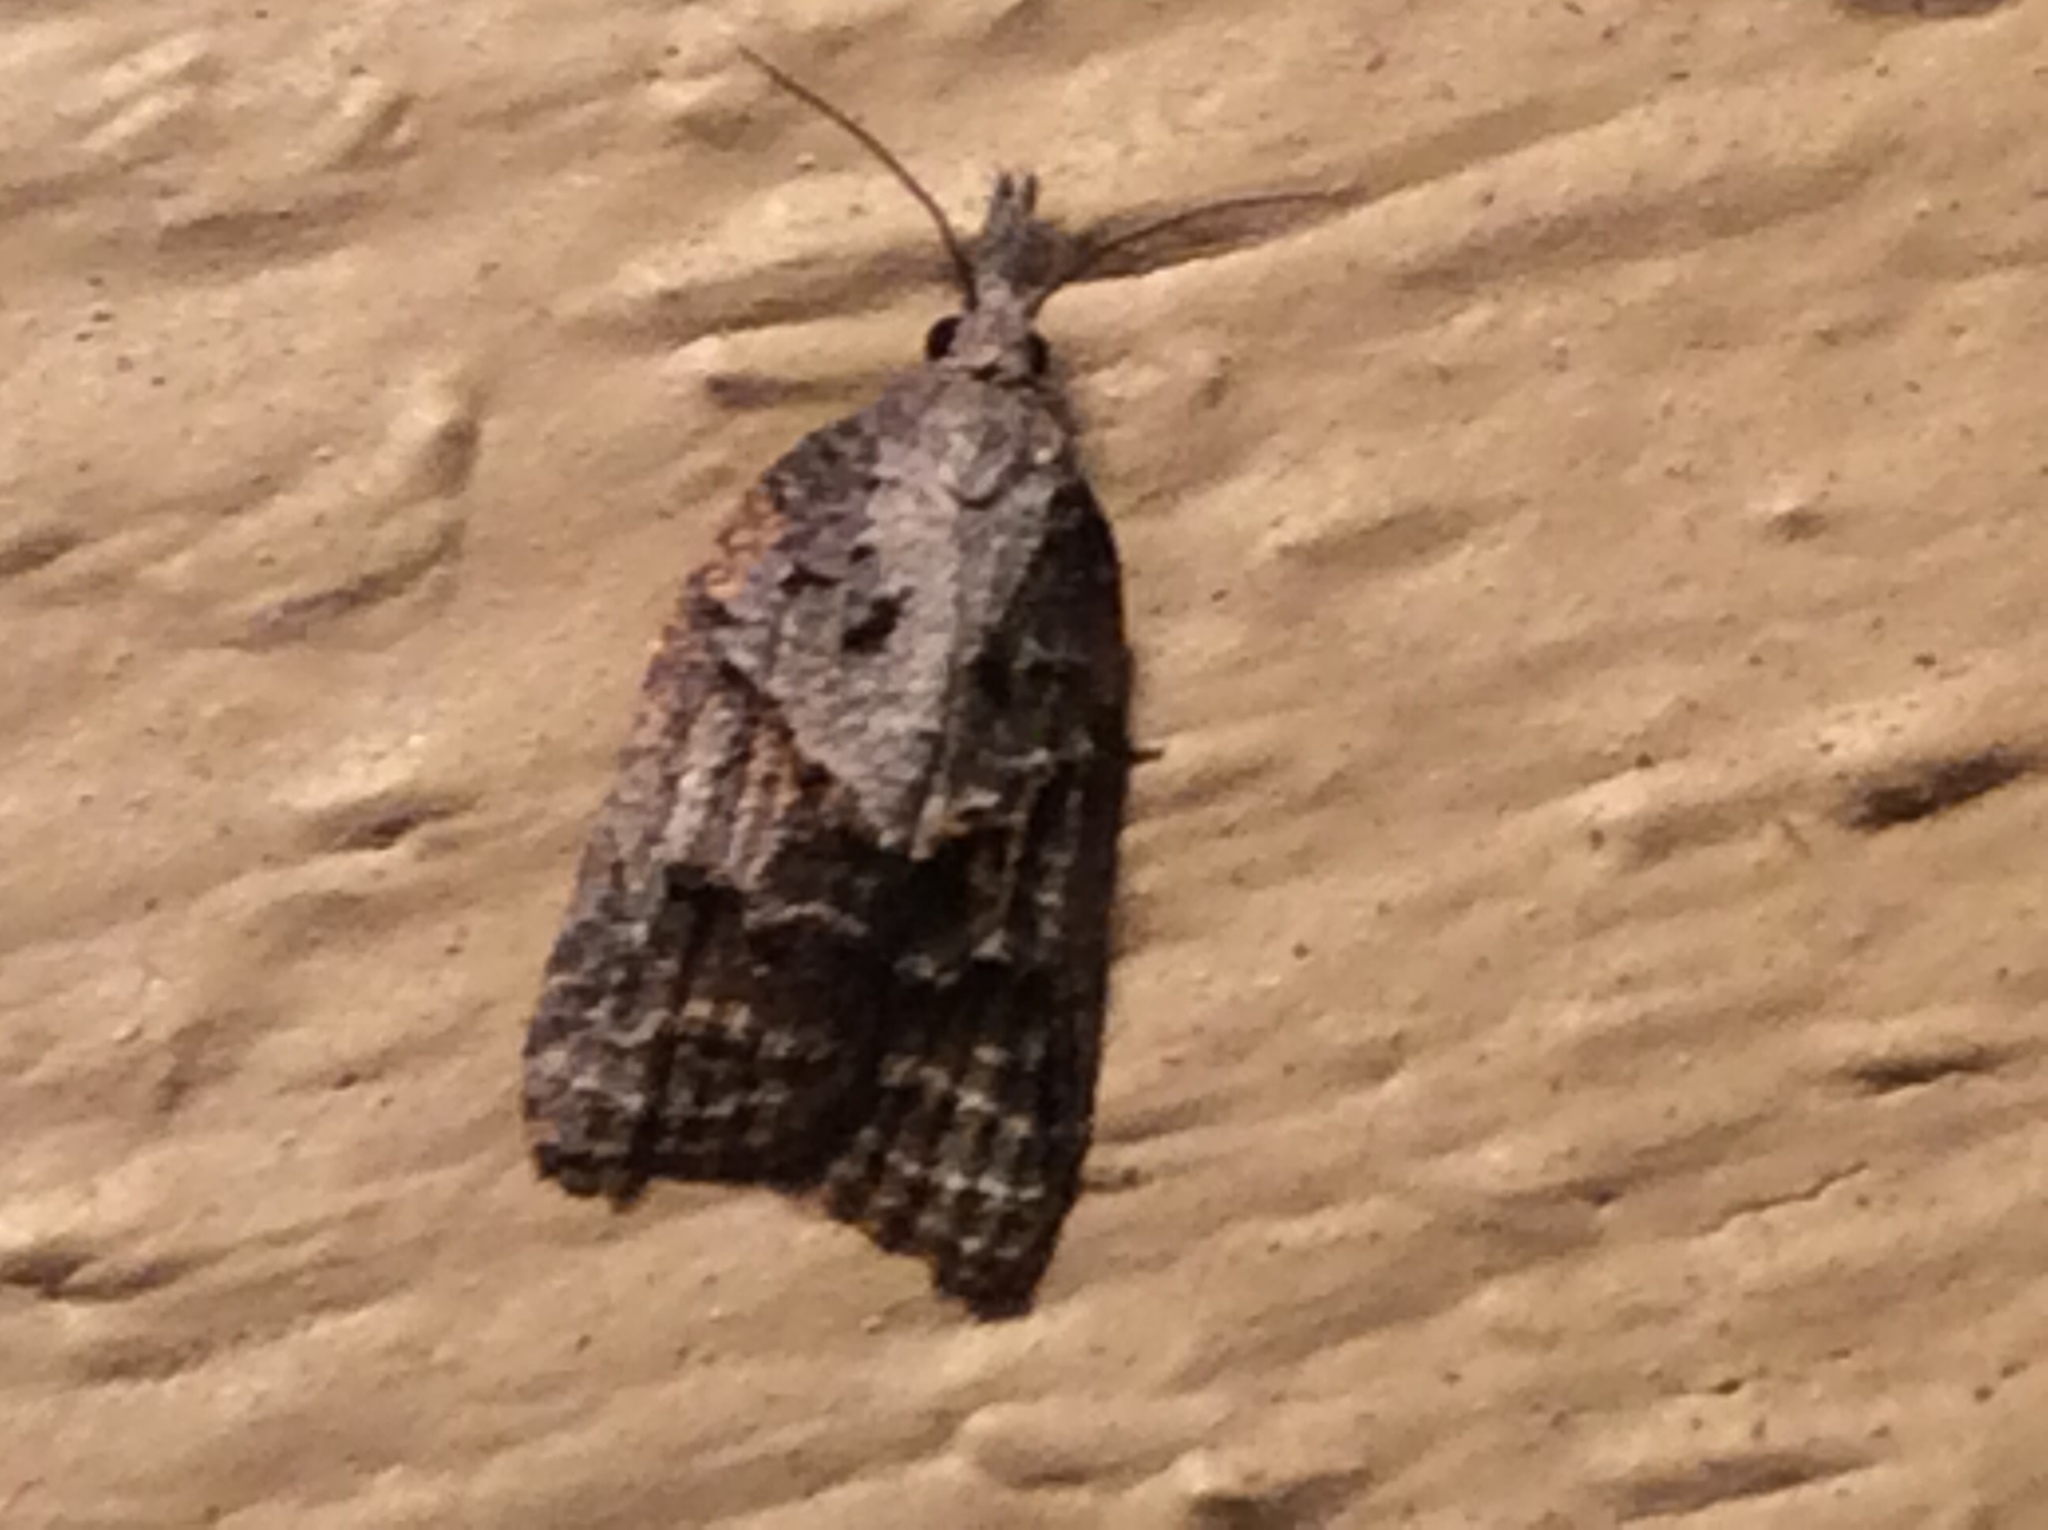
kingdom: Animalia
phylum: Arthropoda
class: Insecta
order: Lepidoptera
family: Tortricidae
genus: Platynota
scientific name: Platynota idaeusalis
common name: Tufted apple bud moth
